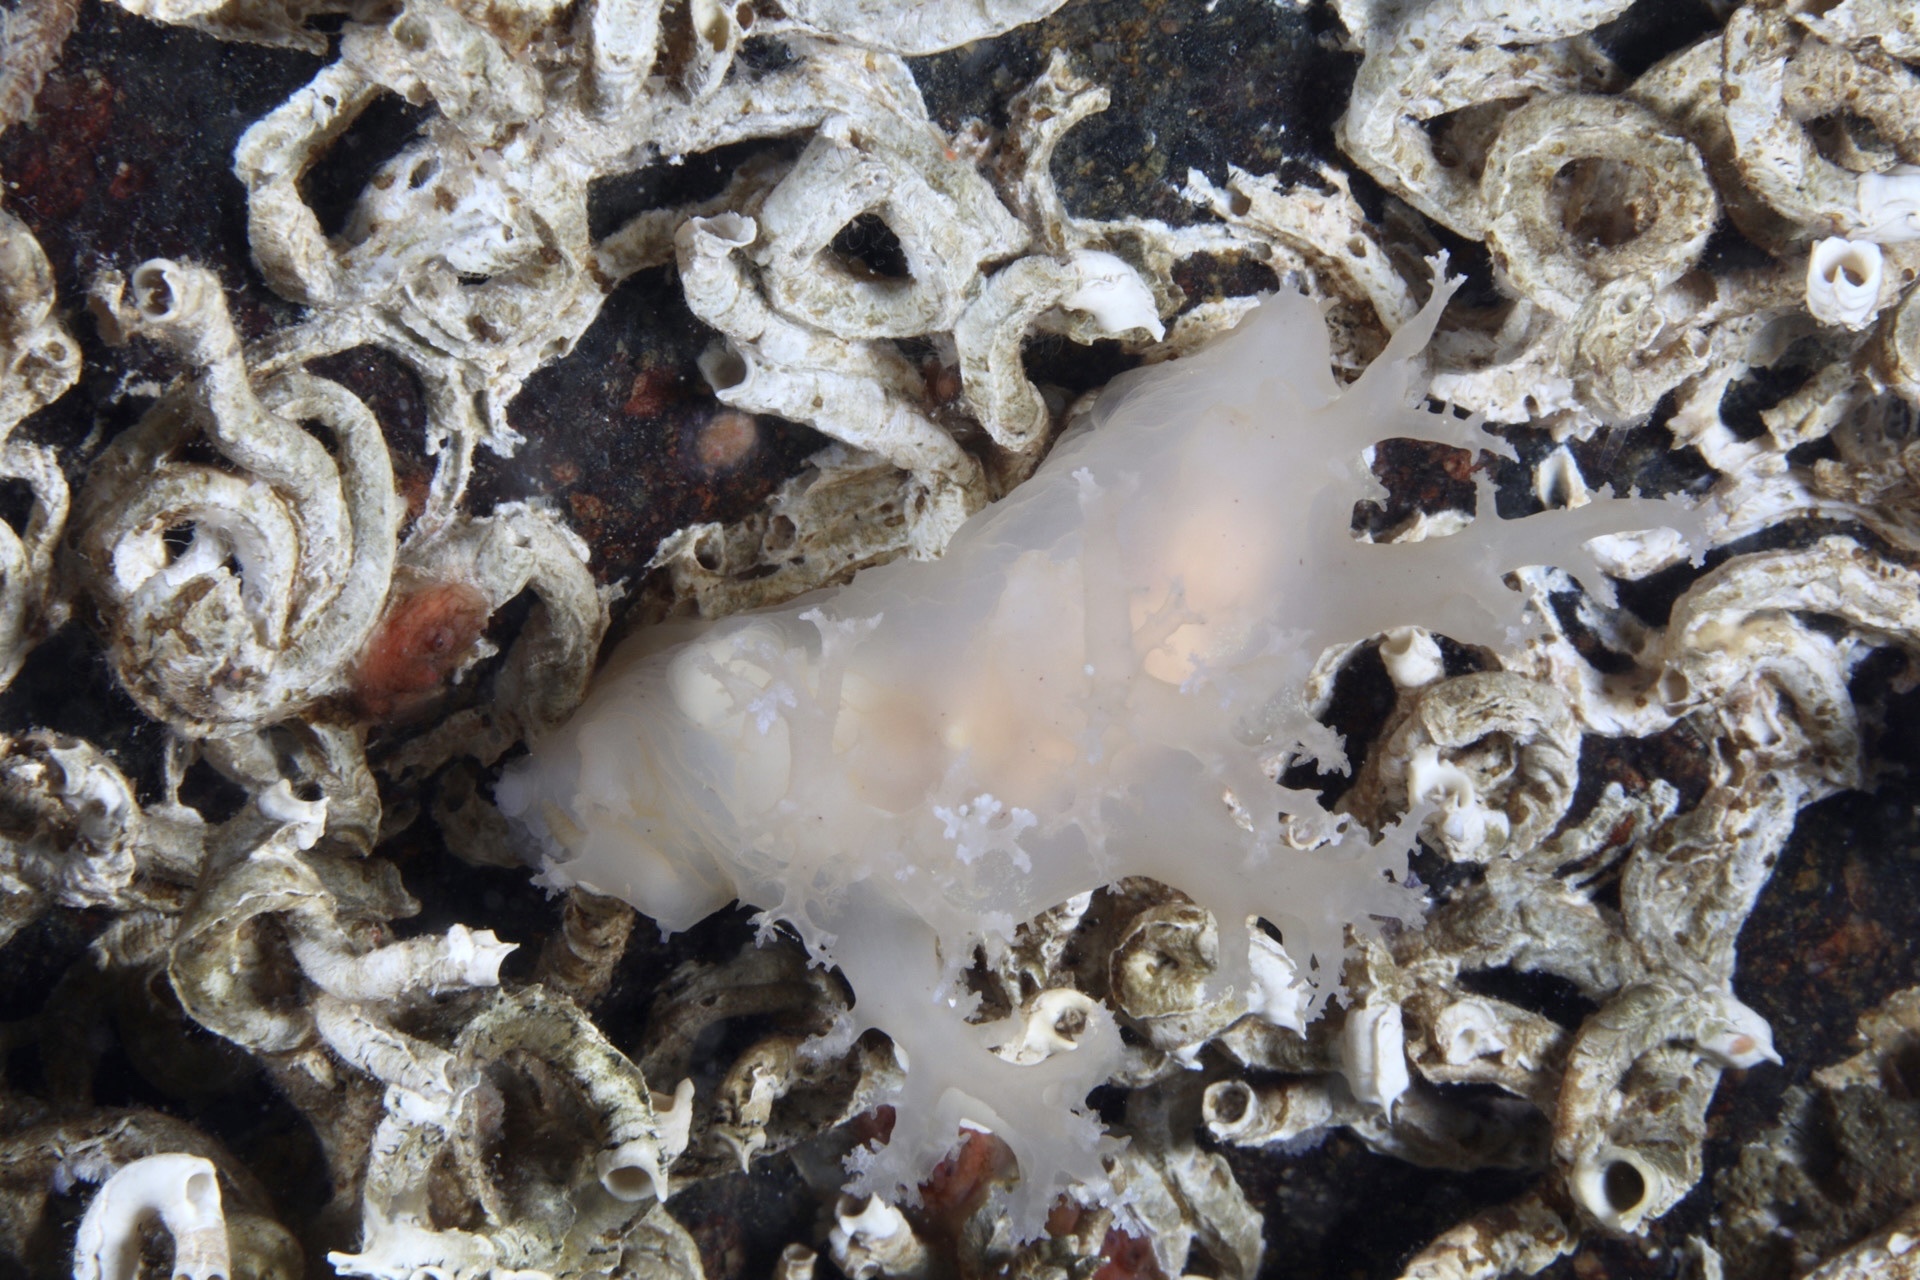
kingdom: Animalia
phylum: Mollusca
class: Gastropoda
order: Nudibranchia
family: Dendronotidae
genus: Dendronotus
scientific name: Dendronotus lacteus
